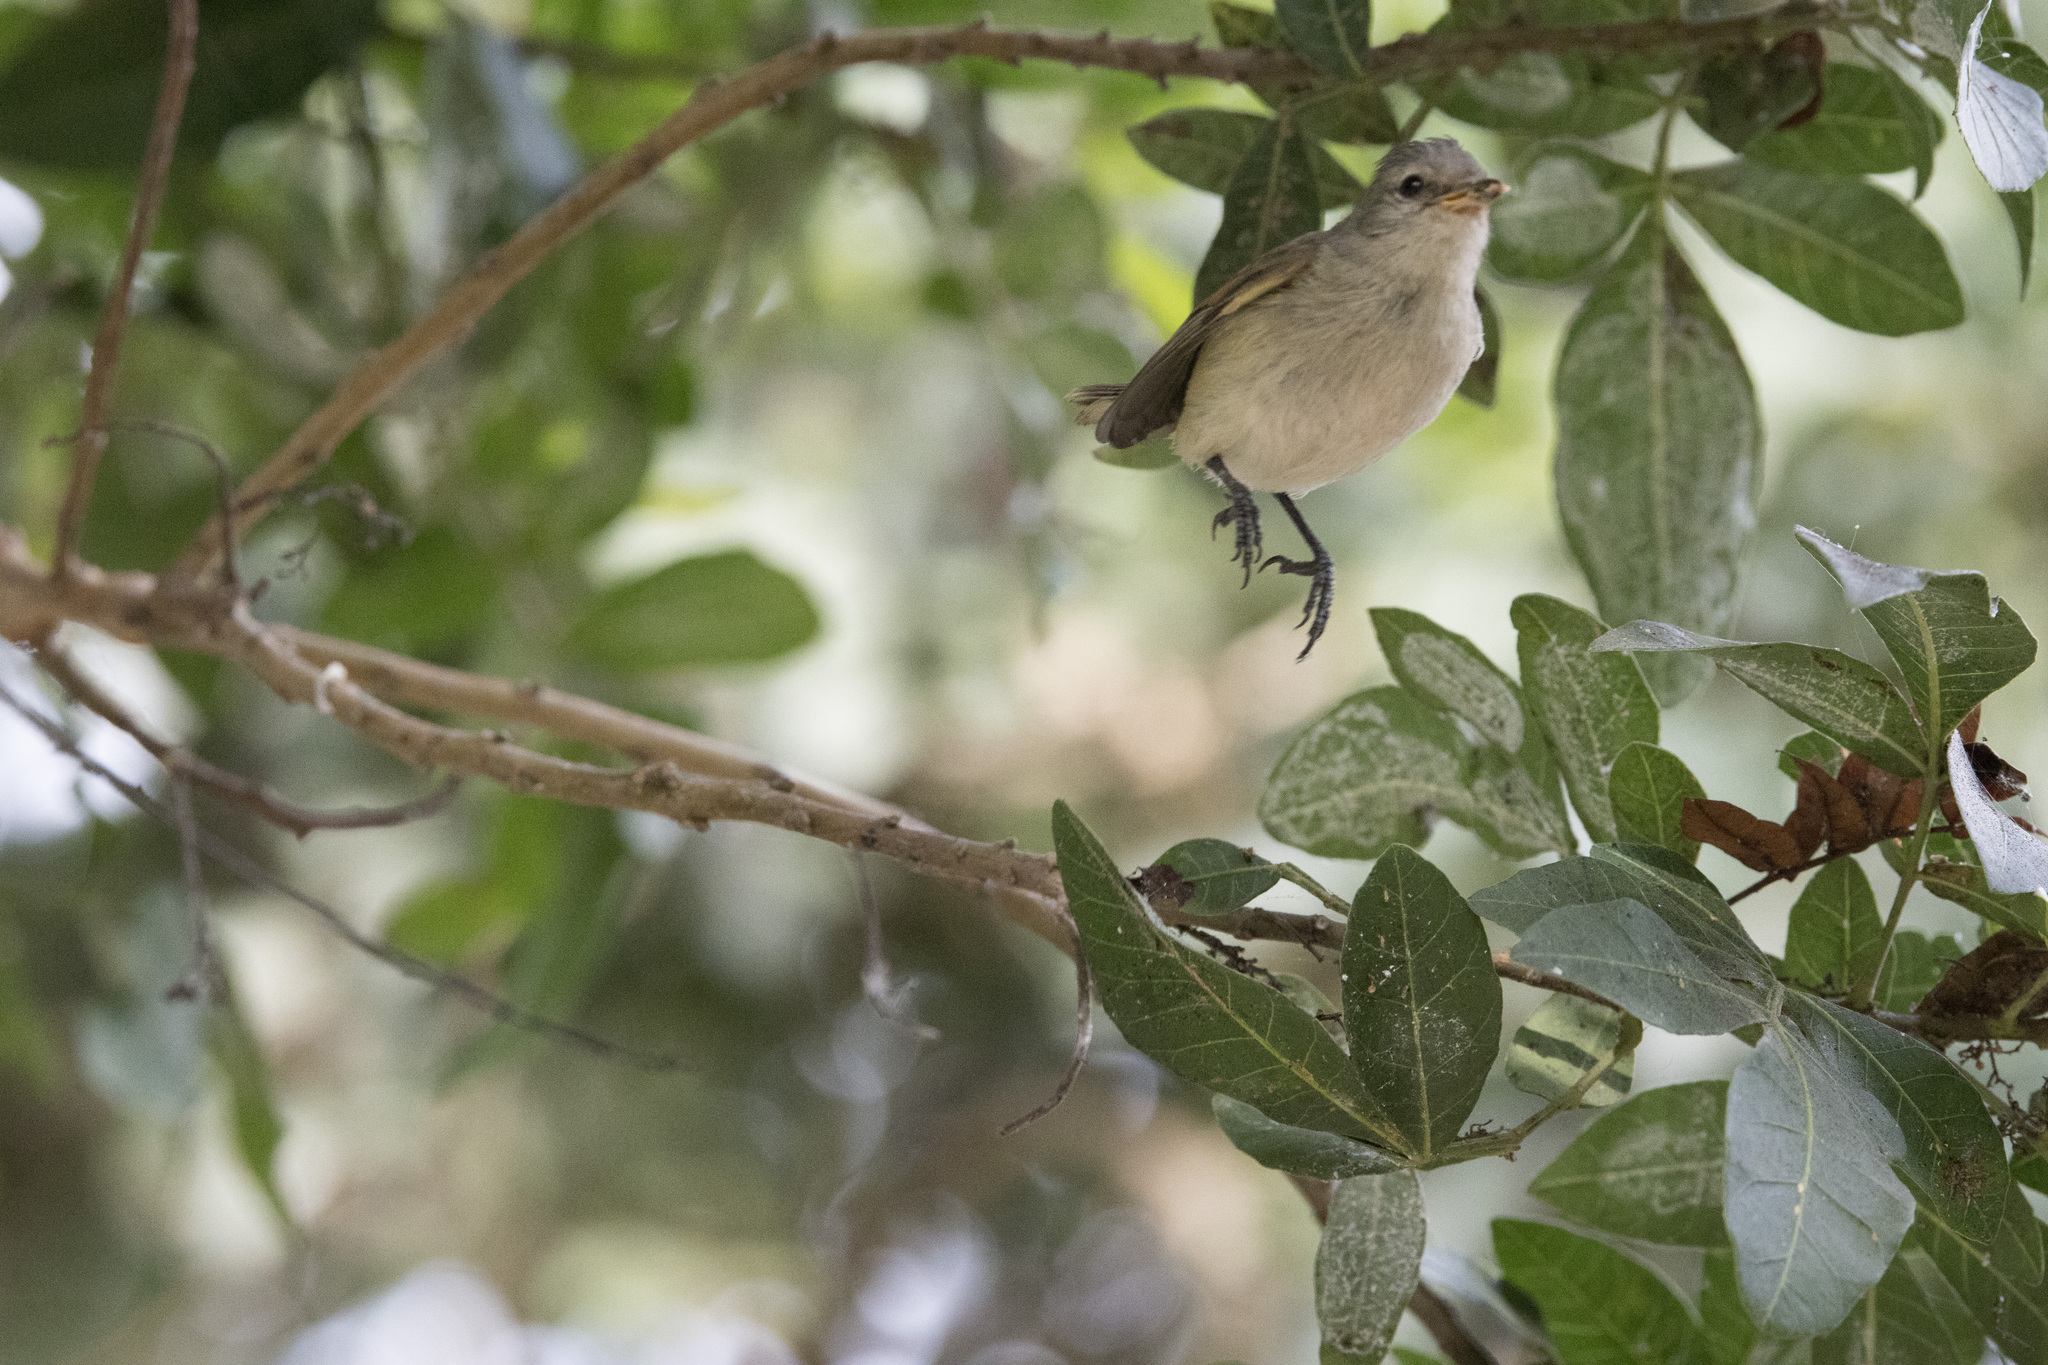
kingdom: Animalia
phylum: Chordata
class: Aves
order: Passeriformes
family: Tyrannidae
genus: Camptostoma
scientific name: Camptostoma obsoletum
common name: Southern beardless-tyrannulet
